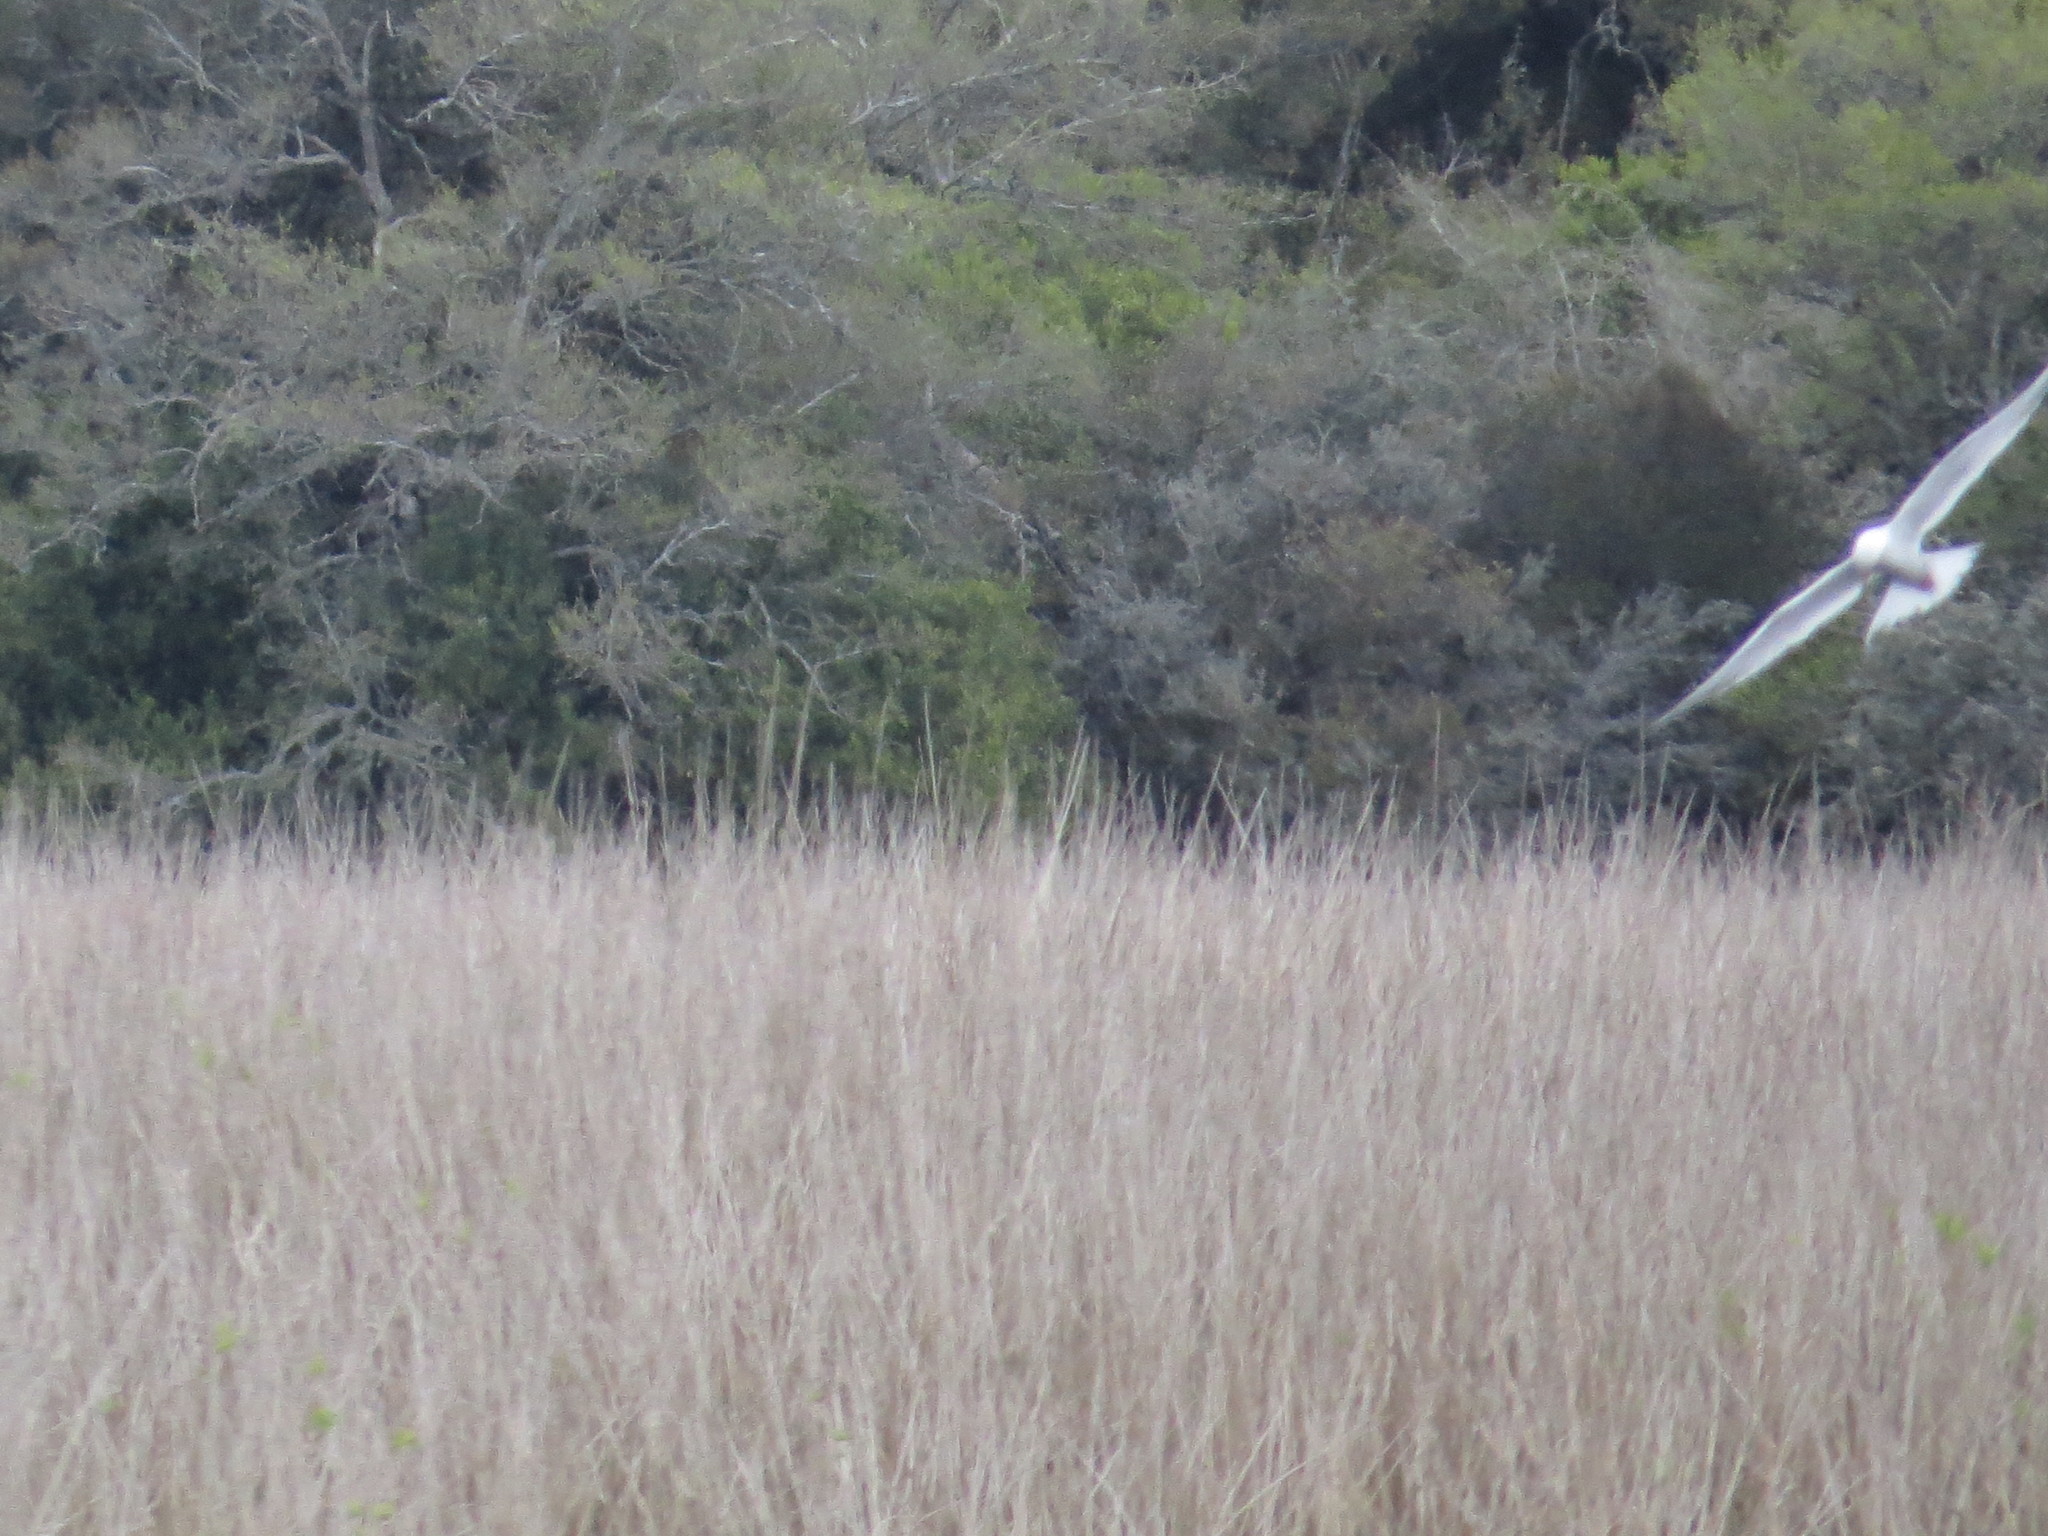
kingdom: Animalia
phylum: Chordata
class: Aves
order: Accipitriformes
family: Accipitridae
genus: Elanus
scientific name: Elanus leucurus
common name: White-tailed kite
